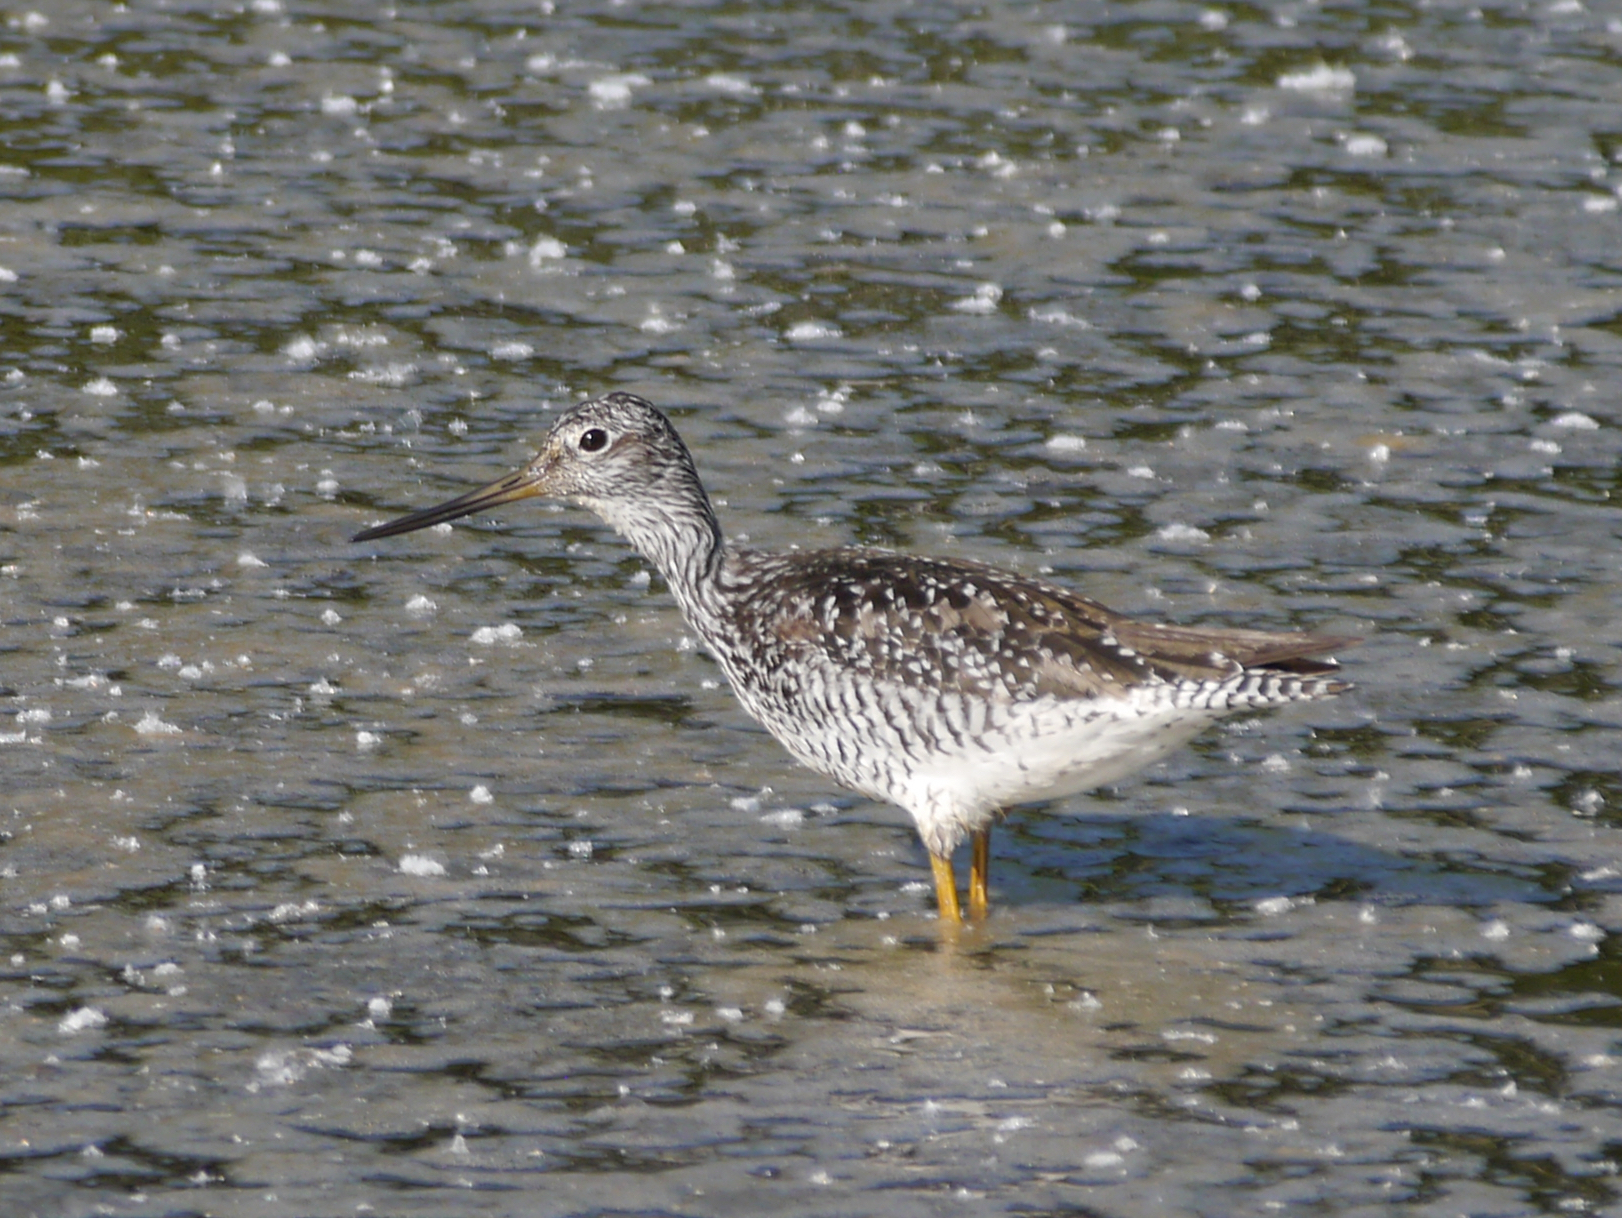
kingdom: Animalia
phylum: Chordata
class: Aves
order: Charadriiformes
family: Scolopacidae
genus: Tringa
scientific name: Tringa melanoleuca
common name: Greater yellowlegs
